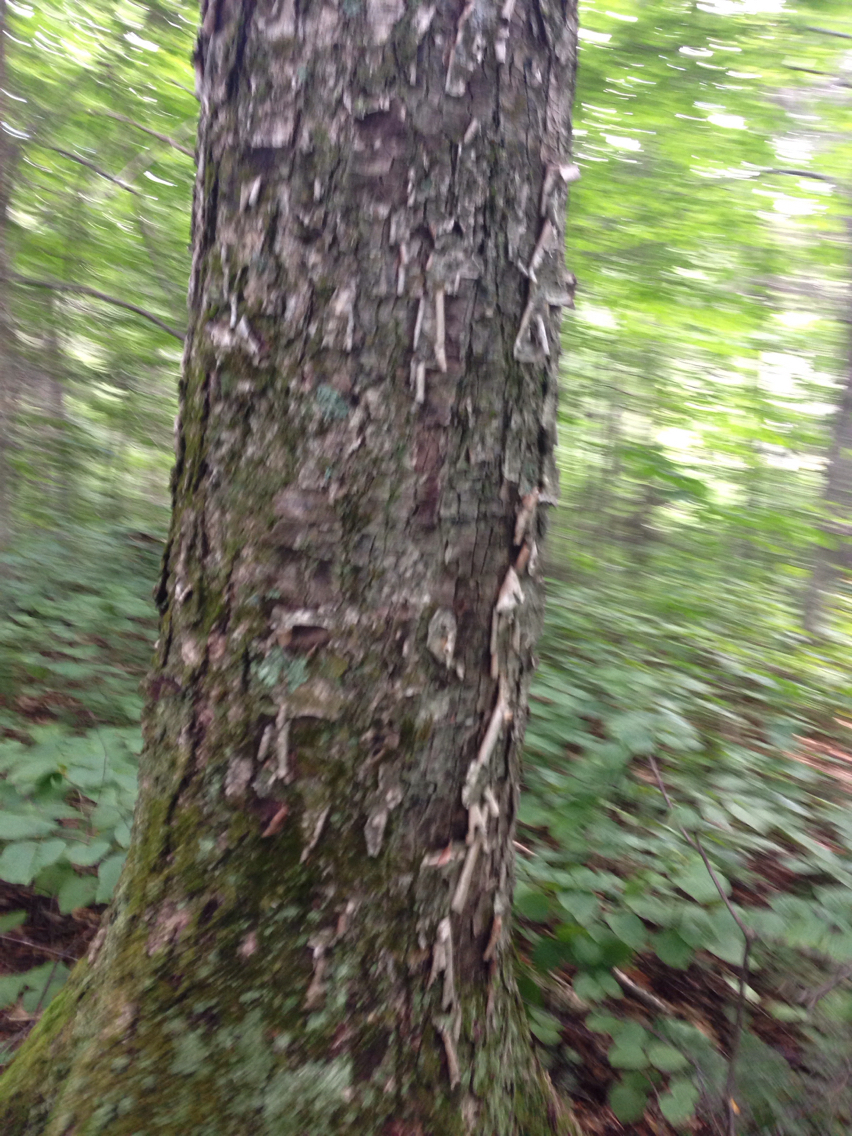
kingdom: Plantae
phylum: Tracheophyta
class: Magnoliopsida
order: Fagales
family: Betulaceae
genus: Betula
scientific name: Betula alleghaniensis
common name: Yellow birch
